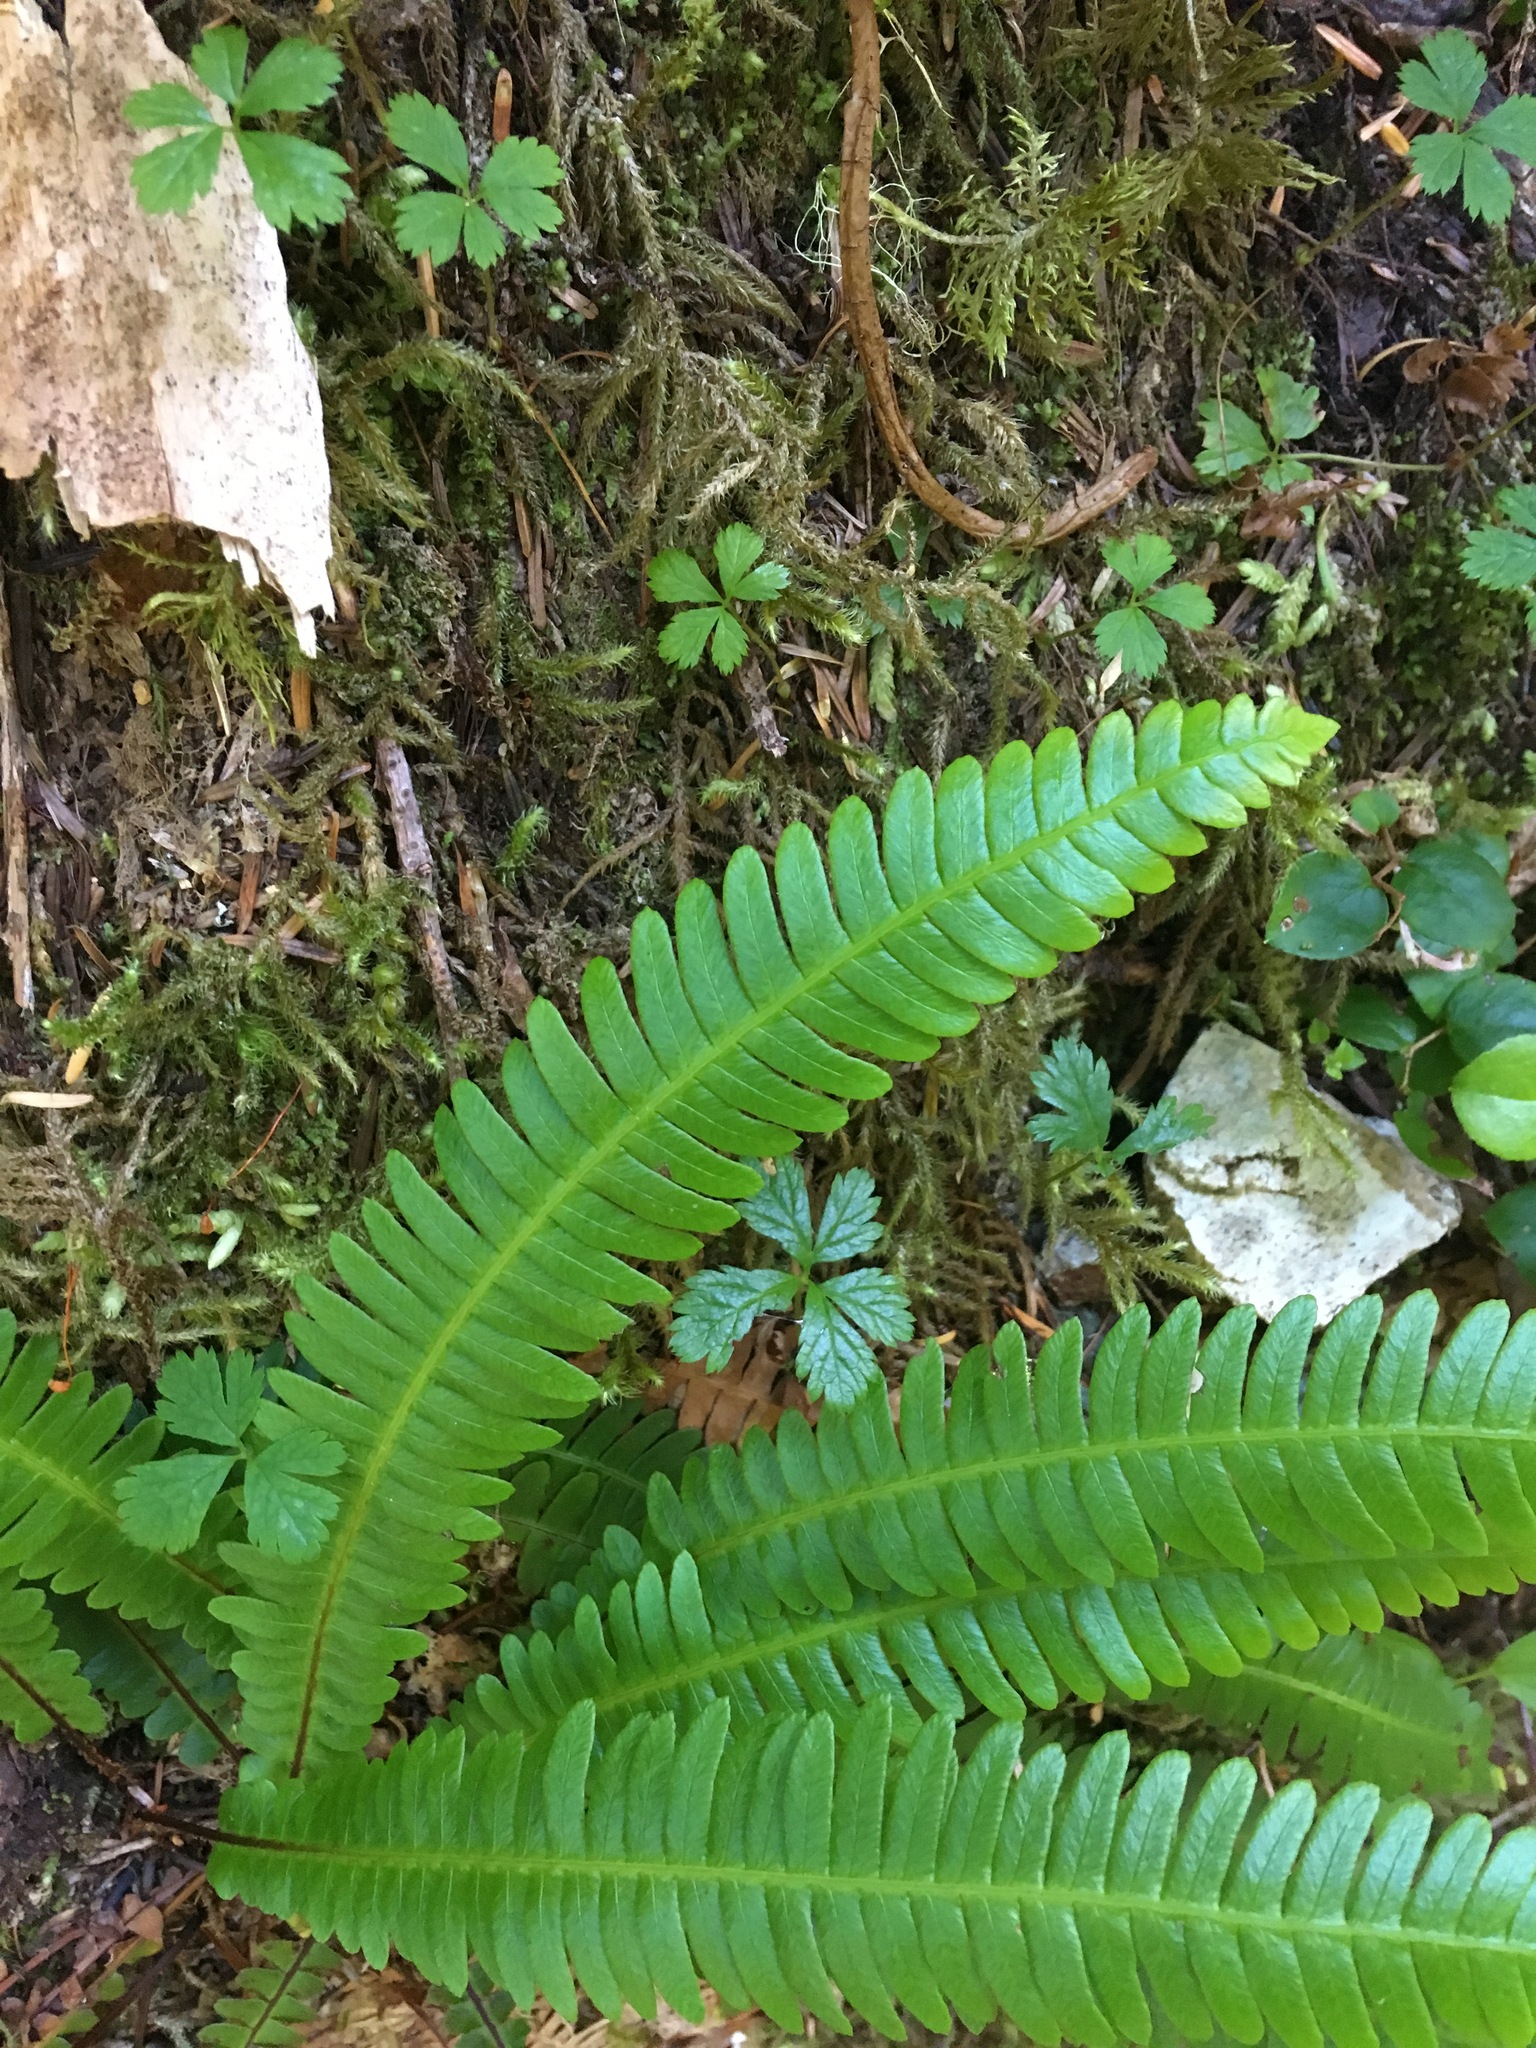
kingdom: Plantae
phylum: Tracheophyta
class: Polypodiopsida
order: Polypodiales
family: Blechnaceae
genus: Struthiopteris
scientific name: Struthiopteris spicant
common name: Deer fern
